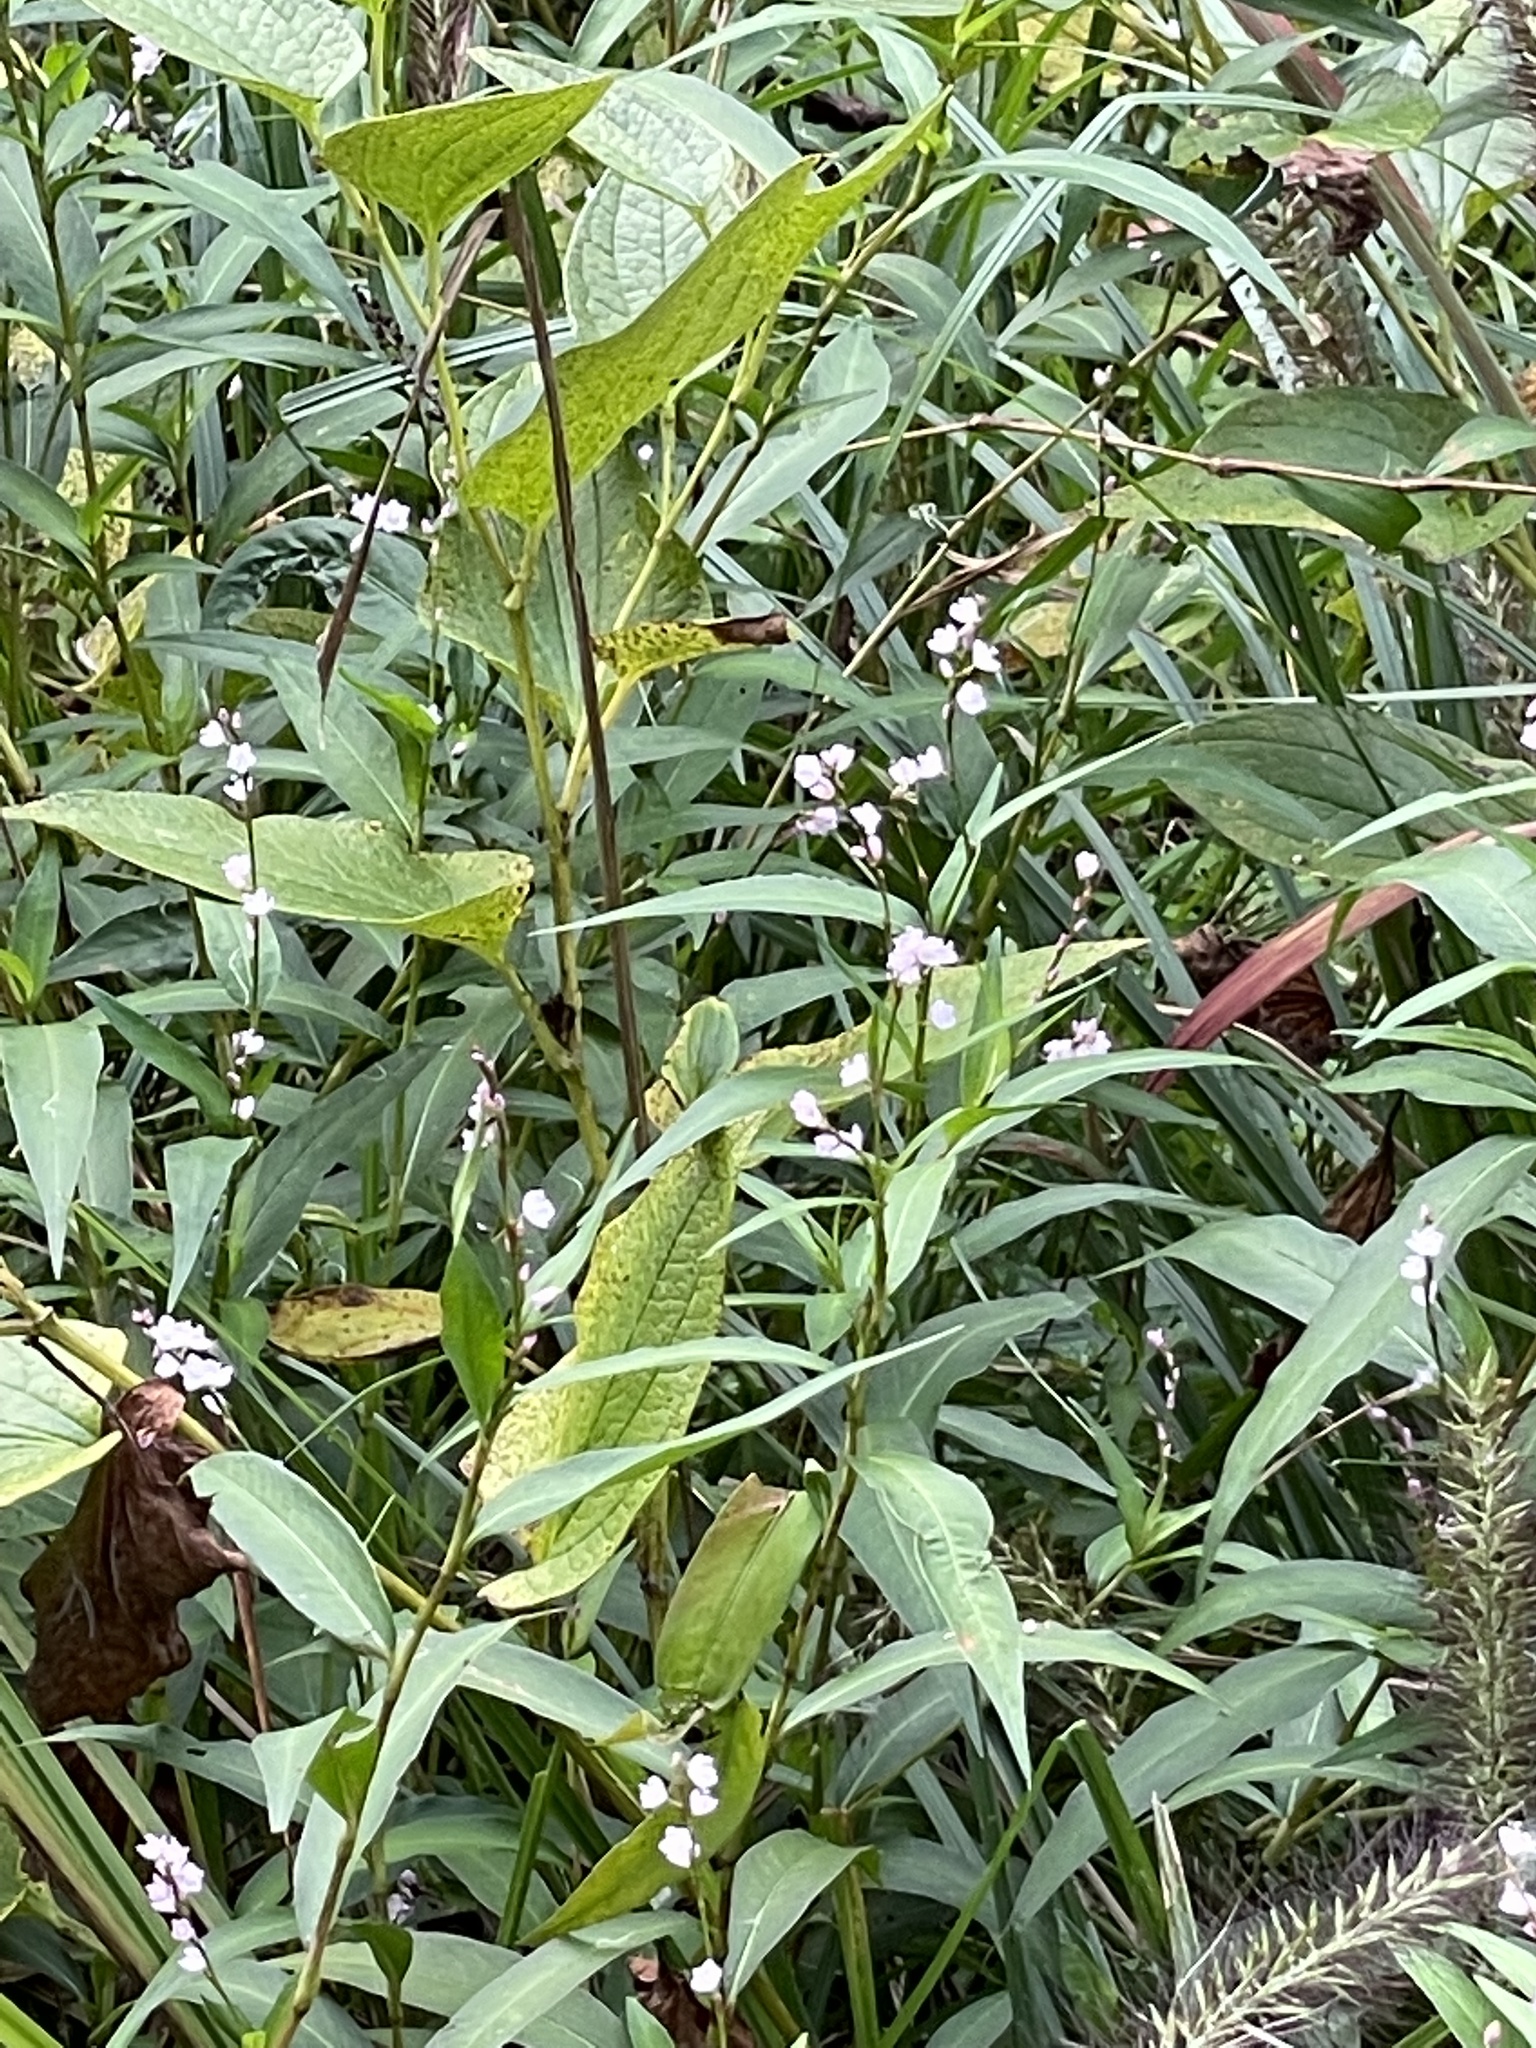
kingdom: Plantae
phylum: Tracheophyta
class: Magnoliopsida
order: Caryophyllales
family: Polygonaceae
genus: Persicaria
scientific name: Persicaria japonica
